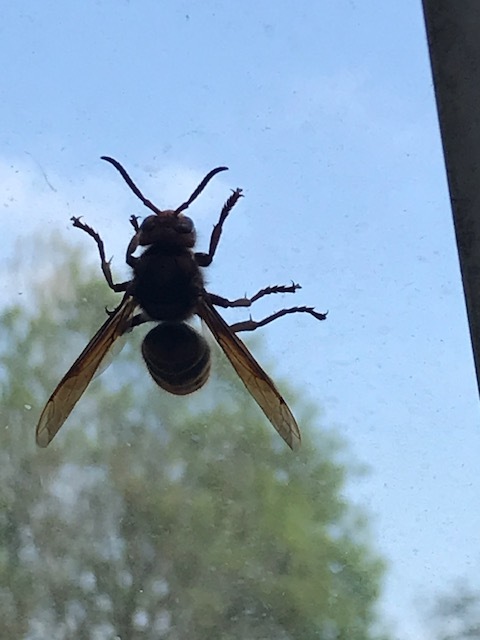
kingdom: Animalia
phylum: Arthropoda
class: Insecta
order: Hymenoptera
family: Vespidae
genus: Vespa
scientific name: Vespa crabro
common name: Hornet
